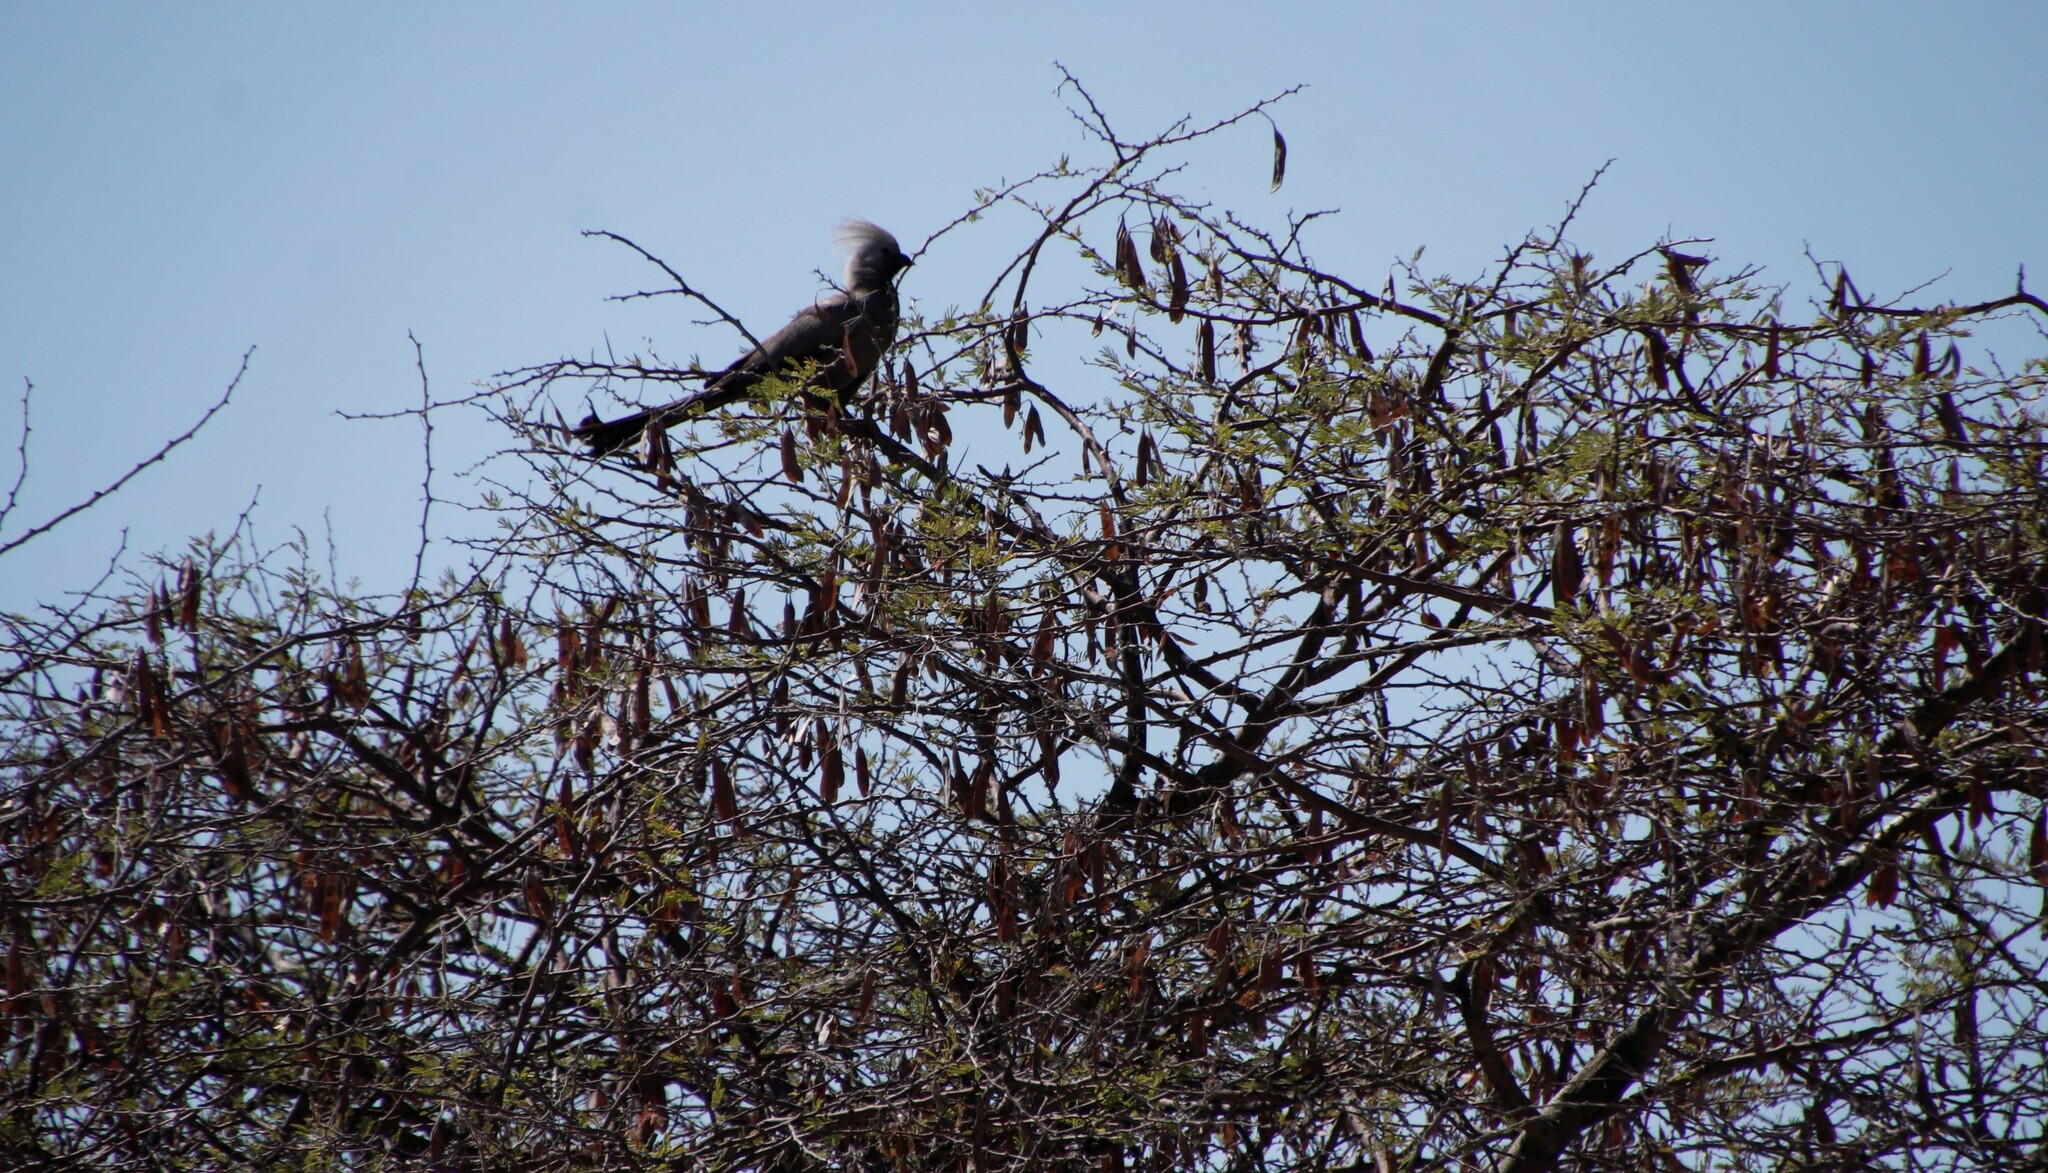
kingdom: Animalia
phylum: Chordata
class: Aves
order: Musophagiformes
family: Musophagidae
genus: Corythaixoides
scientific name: Corythaixoides concolor
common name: Grey go-away-bird
